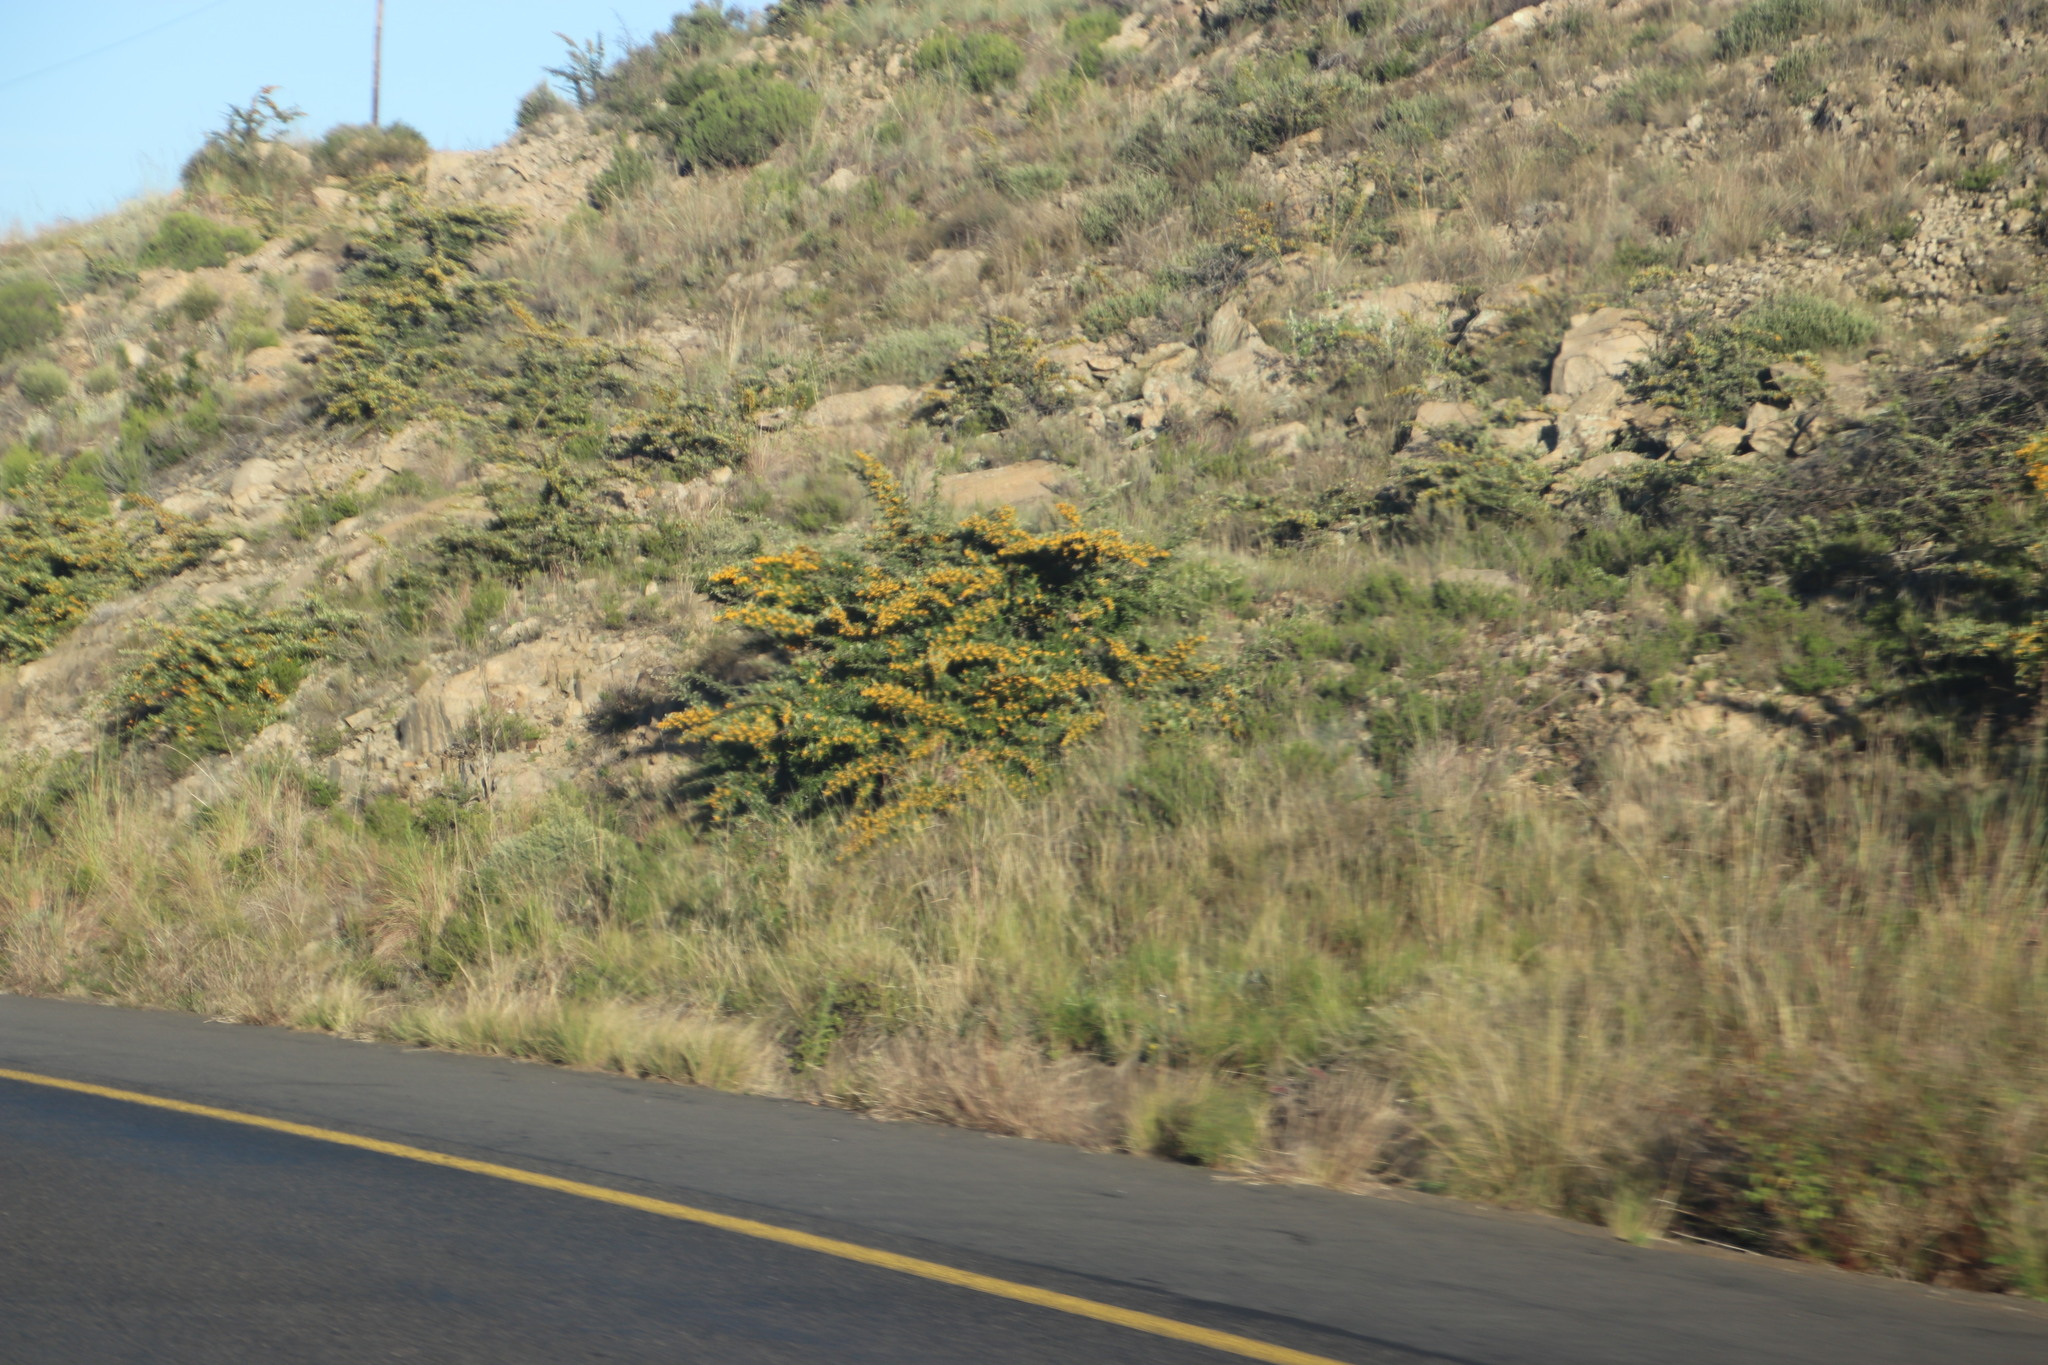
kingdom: Plantae
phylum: Tracheophyta
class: Magnoliopsida
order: Rosales
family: Rosaceae
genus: Pyracantha
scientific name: Pyracantha angustifolia
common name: Narrowleaf firethorn
